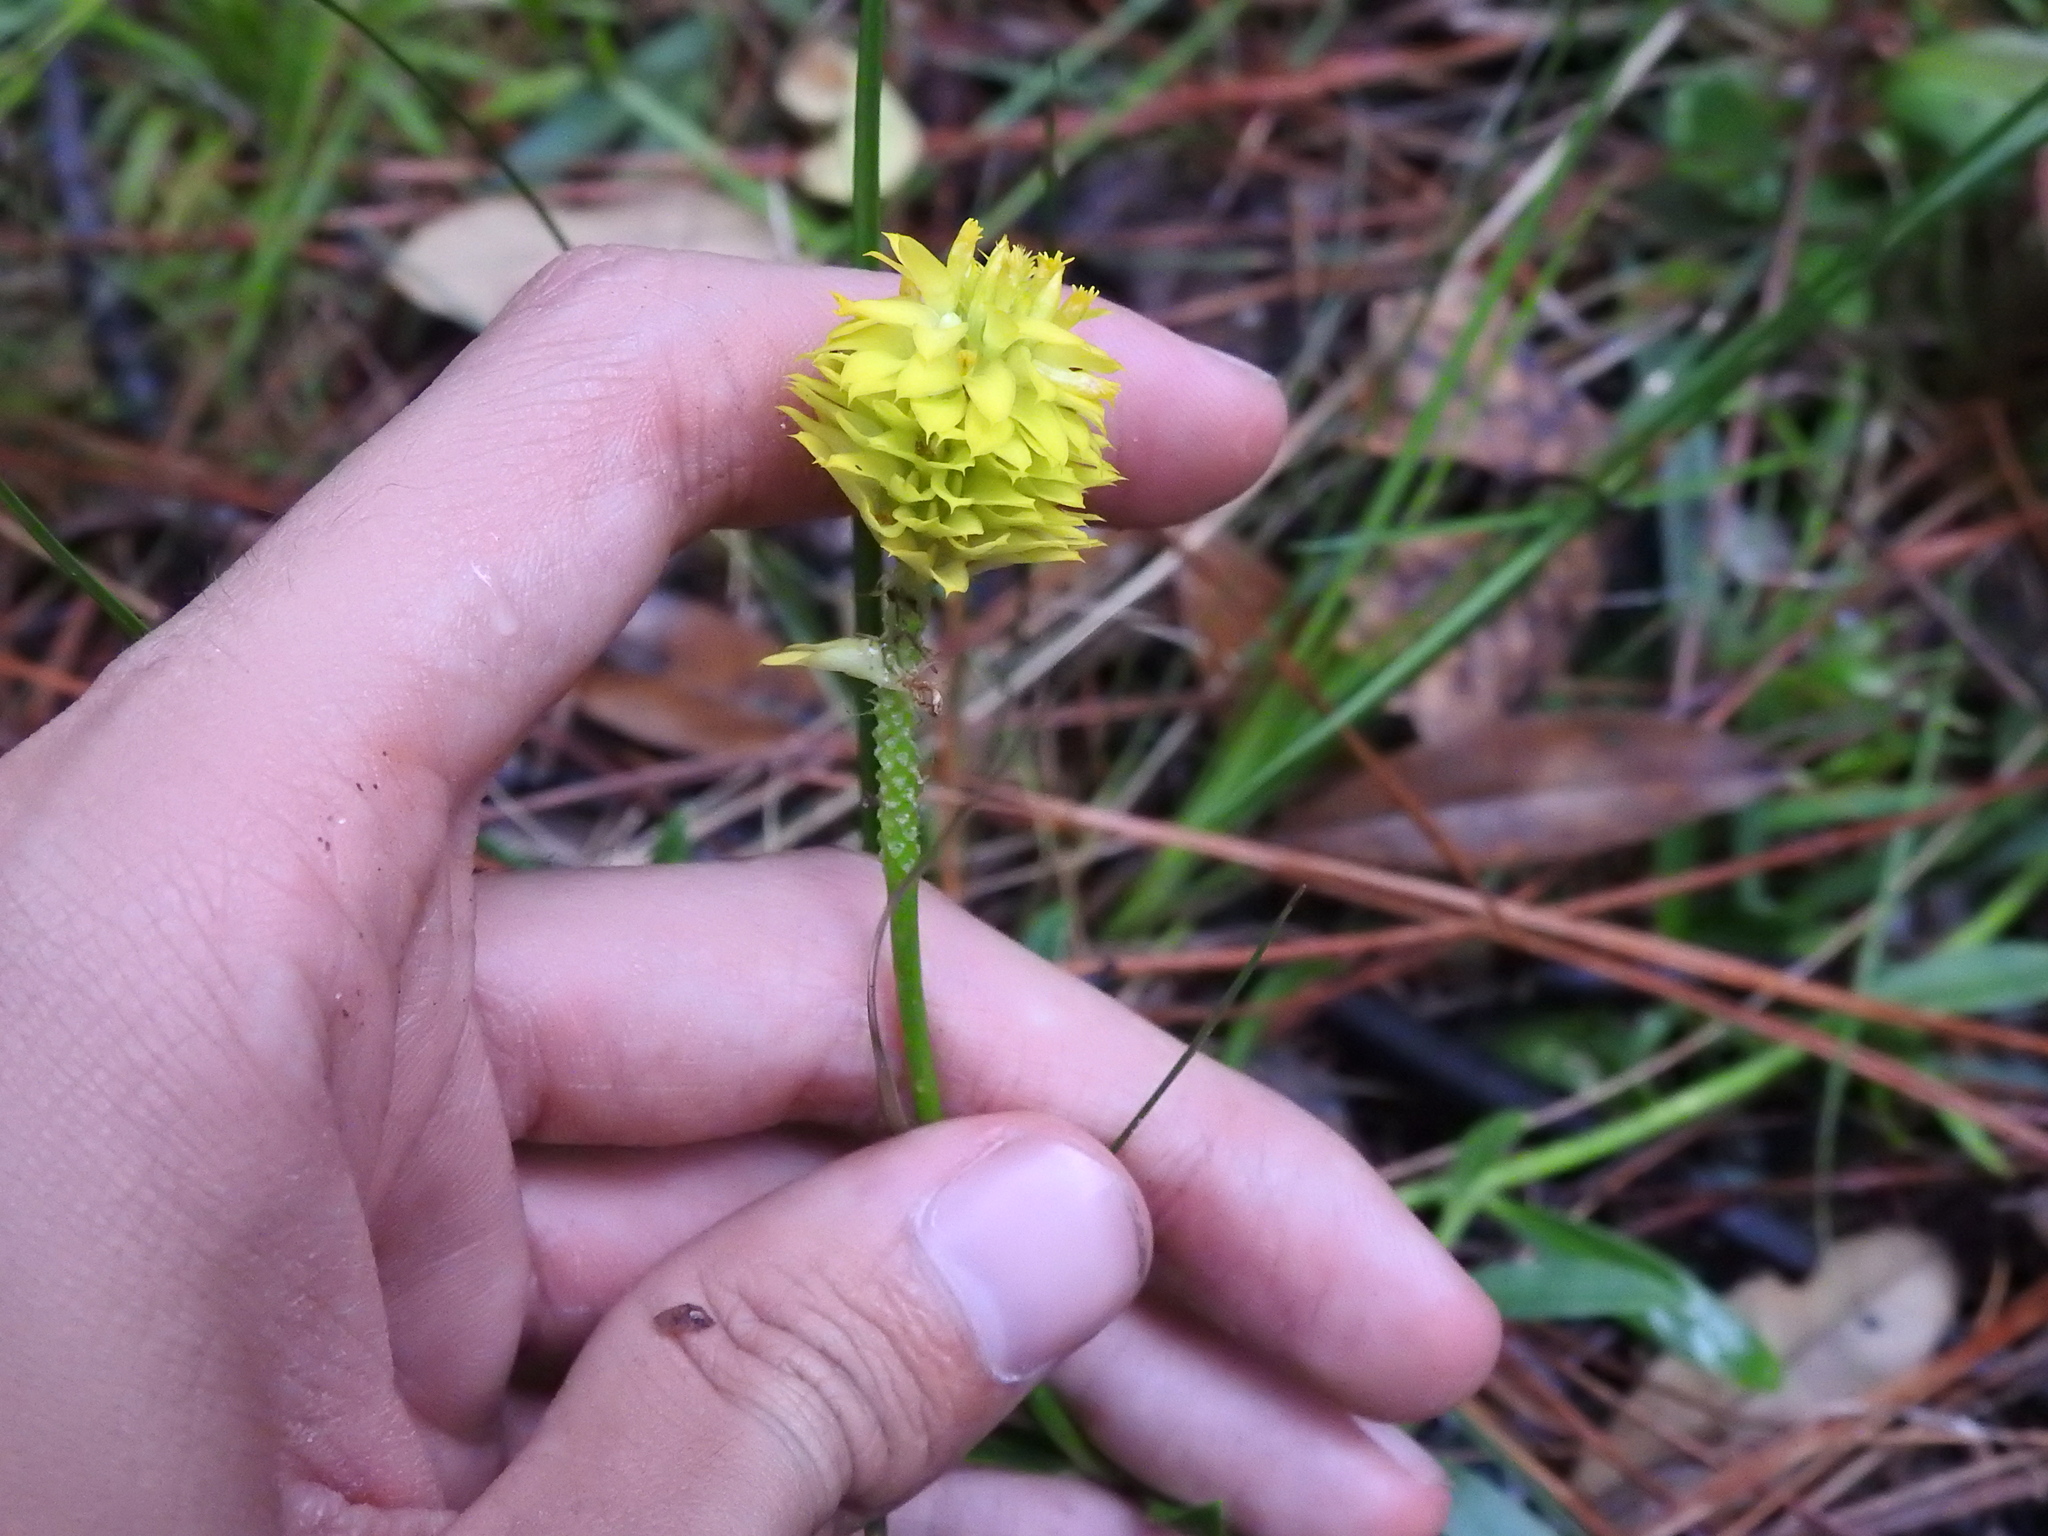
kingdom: Plantae
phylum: Tracheophyta
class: Magnoliopsida
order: Fabales
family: Polygalaceae
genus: Polygala
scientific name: Polygala rugelii
